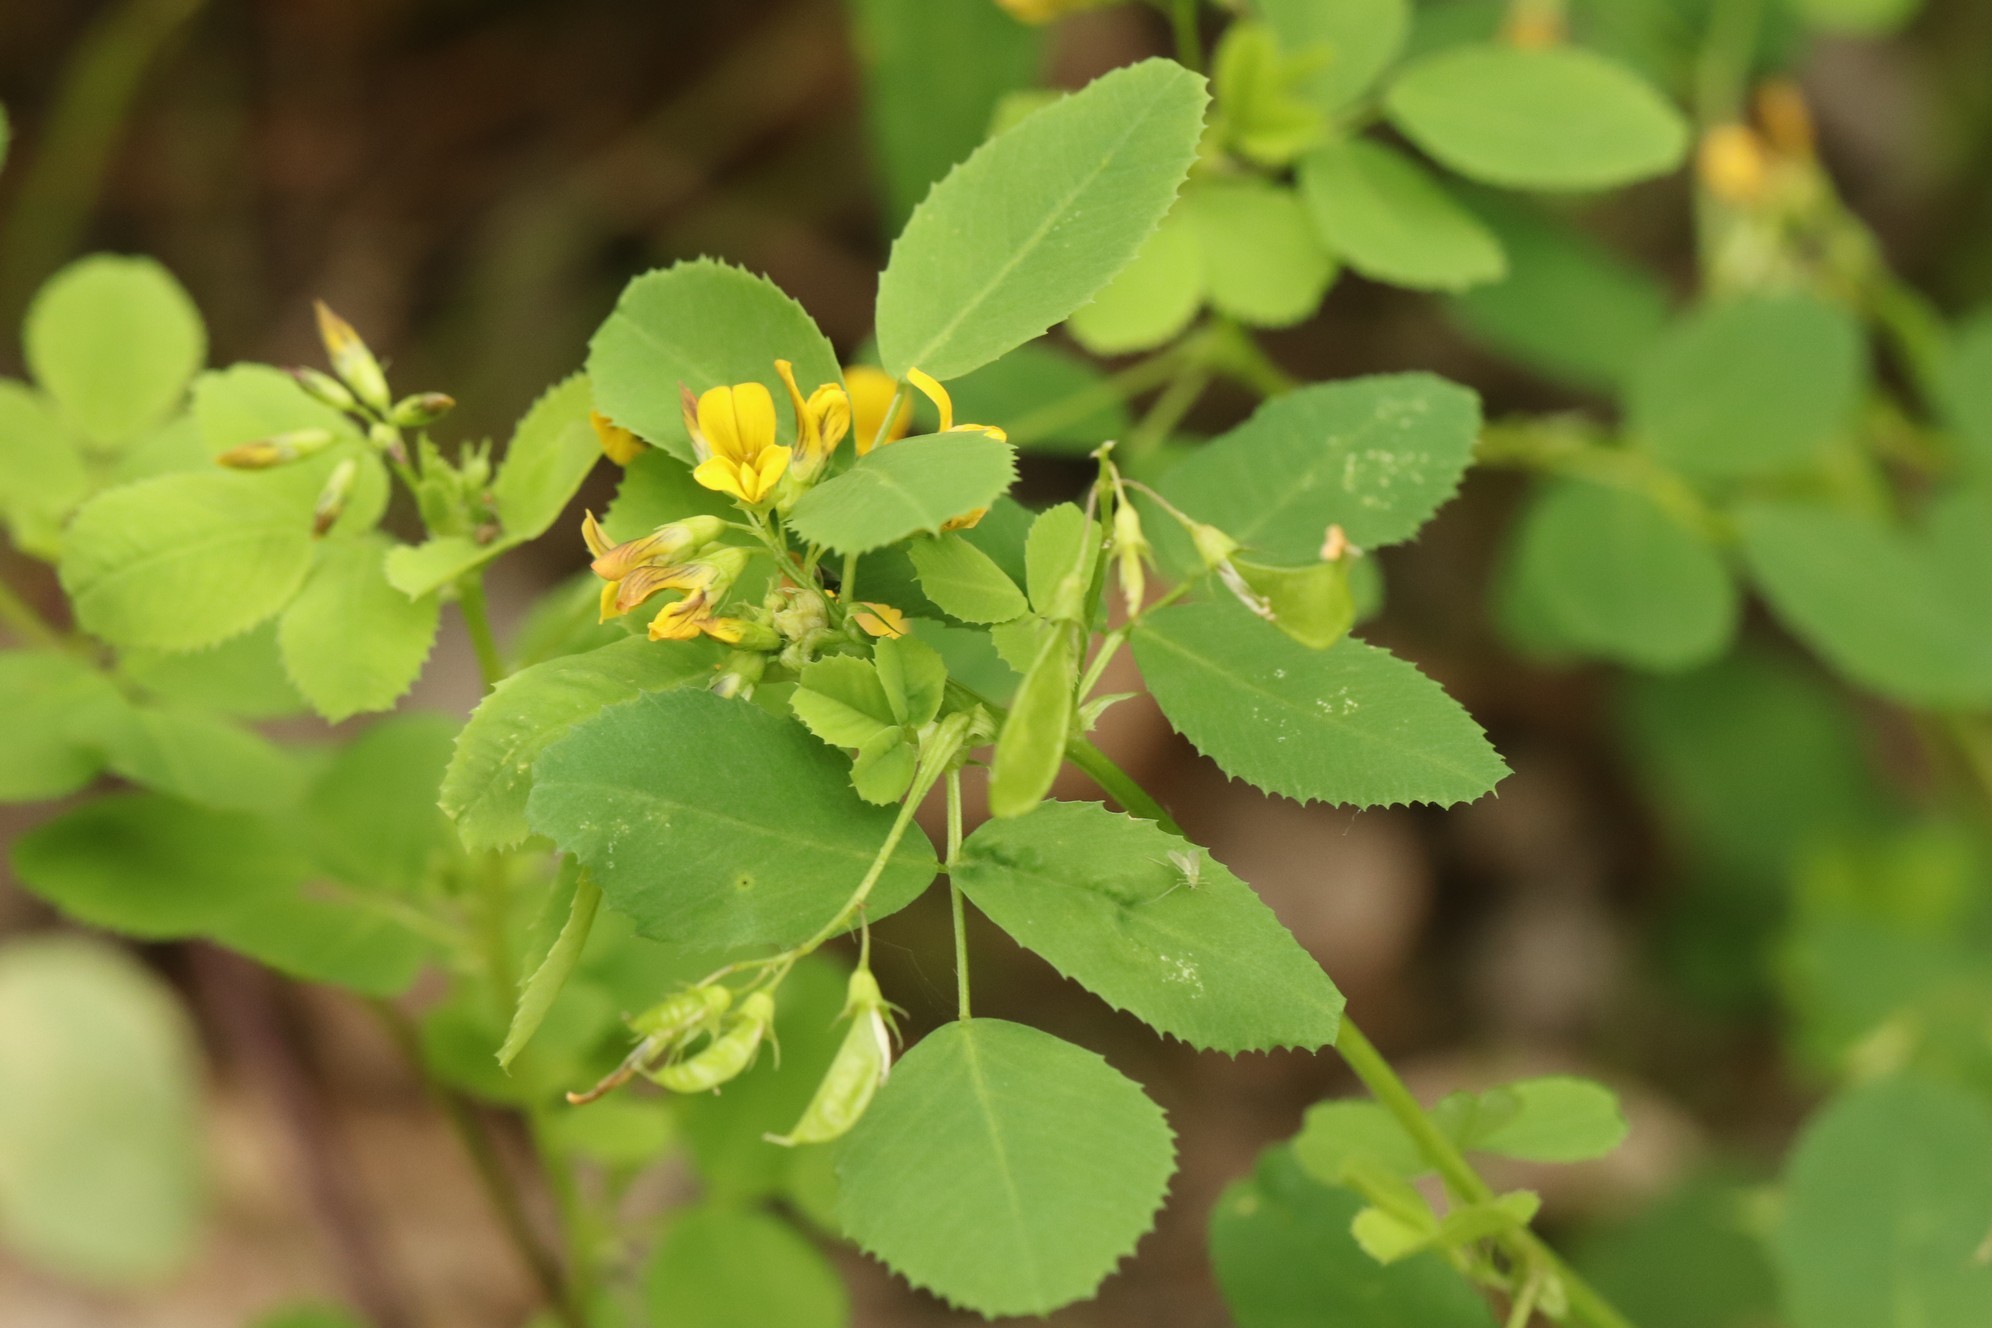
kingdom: Plantae
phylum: Tracheophyta
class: Magnoliopsida
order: Fabales
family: Fabaceae
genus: Medicago
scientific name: Medicago platycarpos
